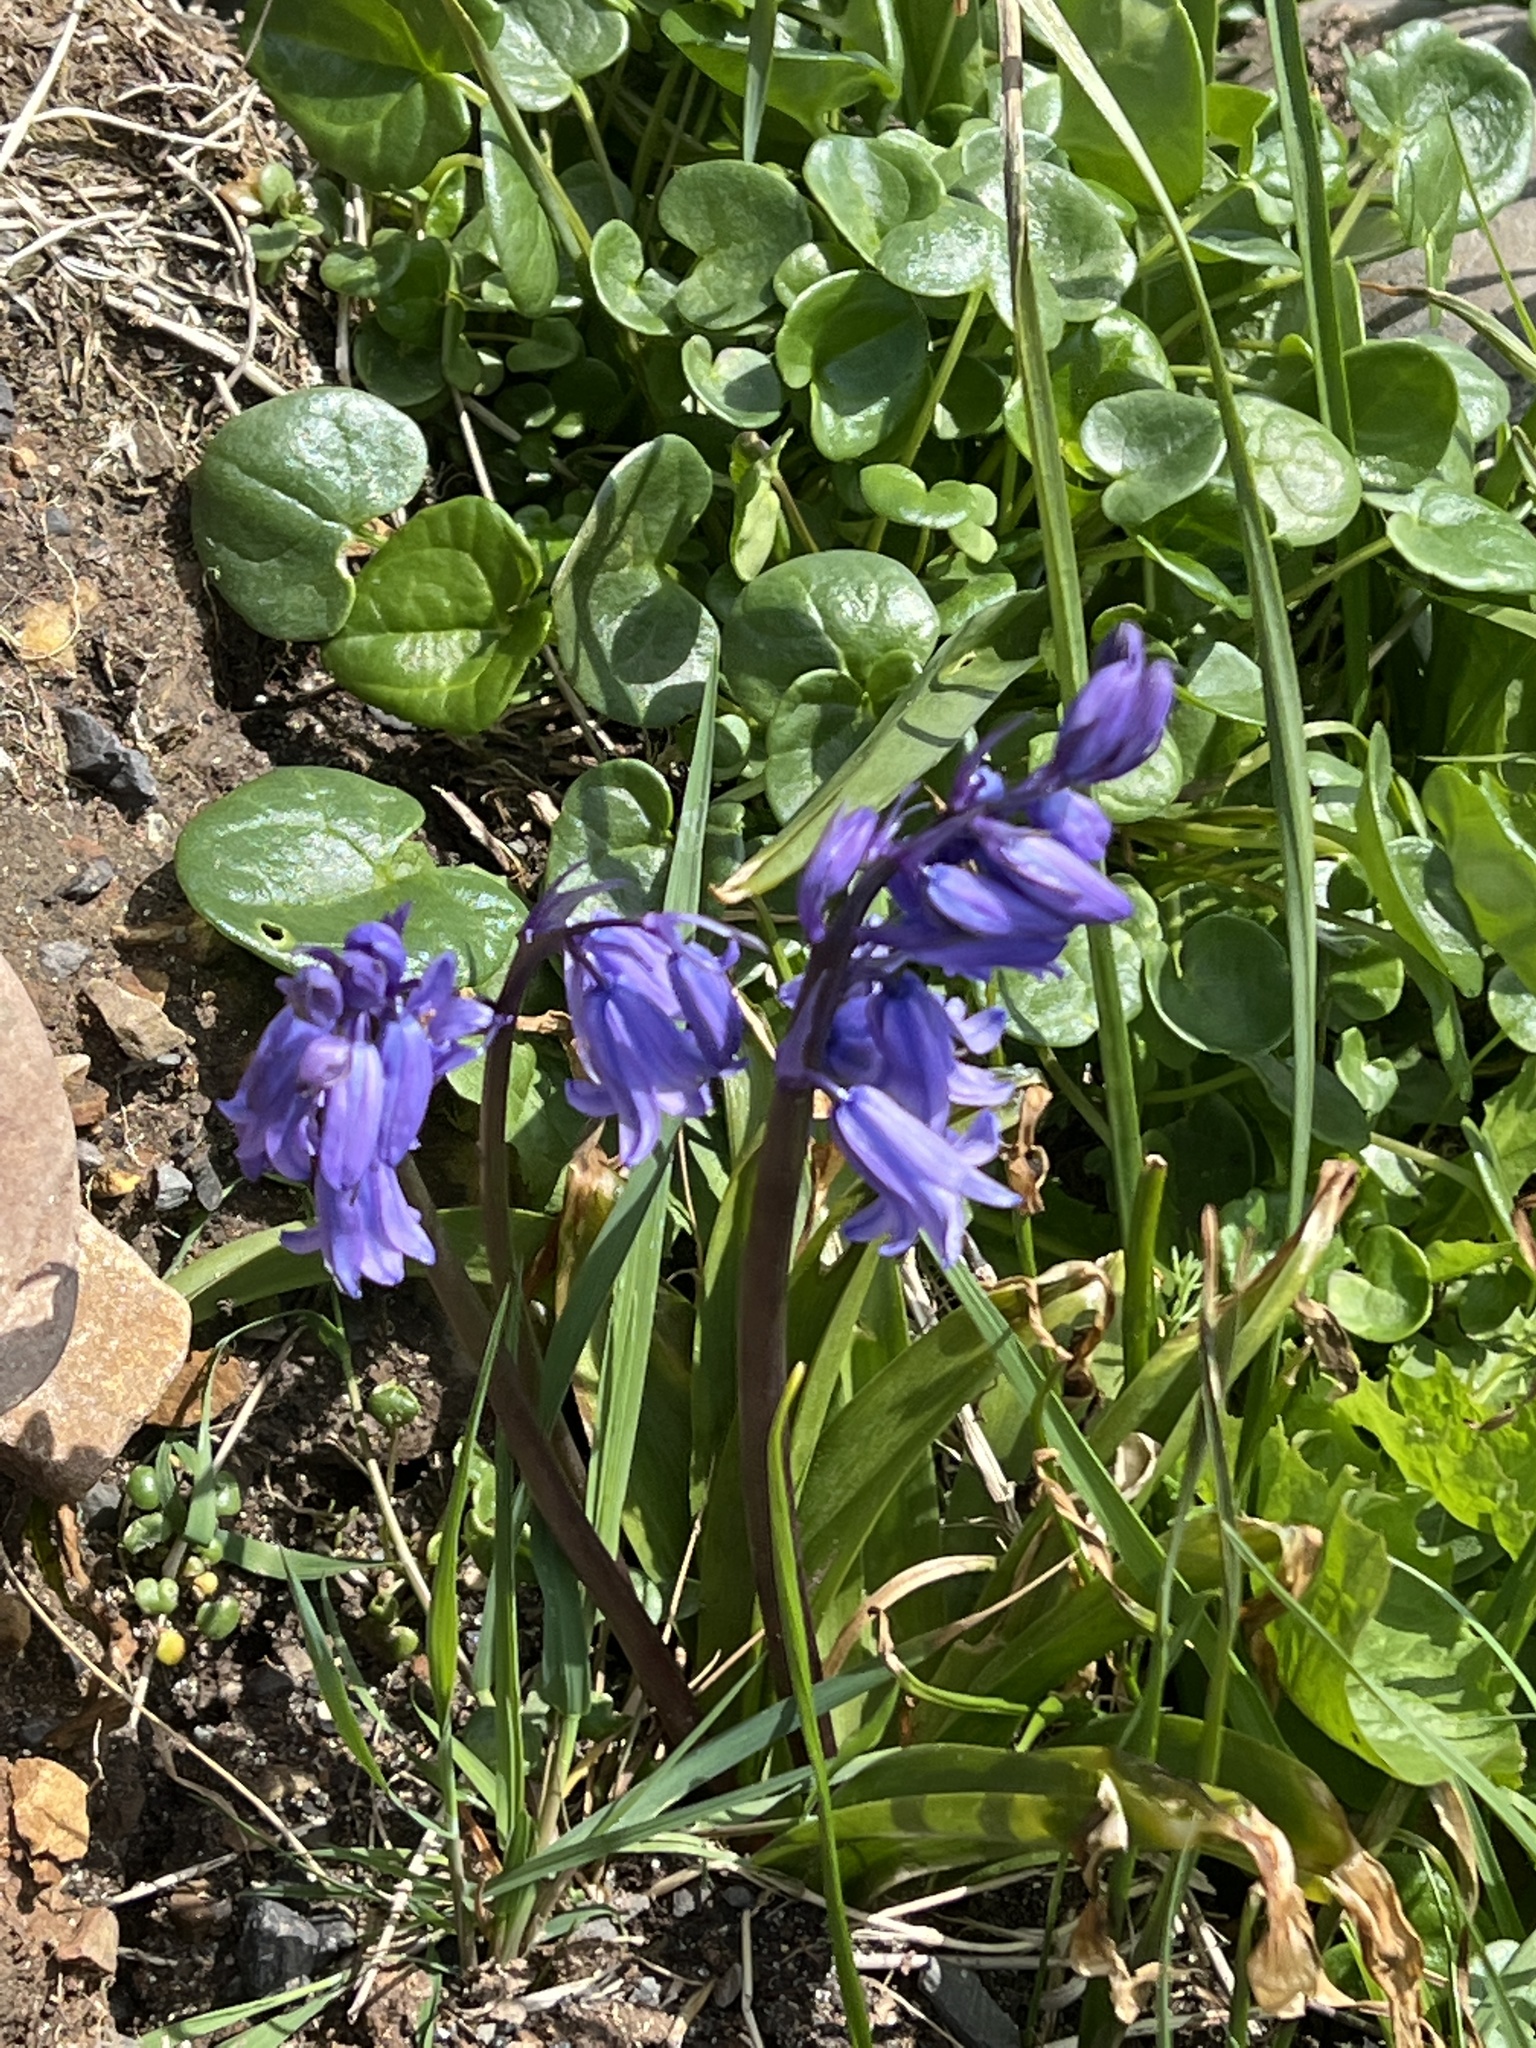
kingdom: Plantae
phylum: Tracheophyta
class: Liliopsida
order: Asparagales
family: Asparagaceae
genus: Hyacinthoides
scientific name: Hyacinthoides non-scripta
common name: Bluebell
